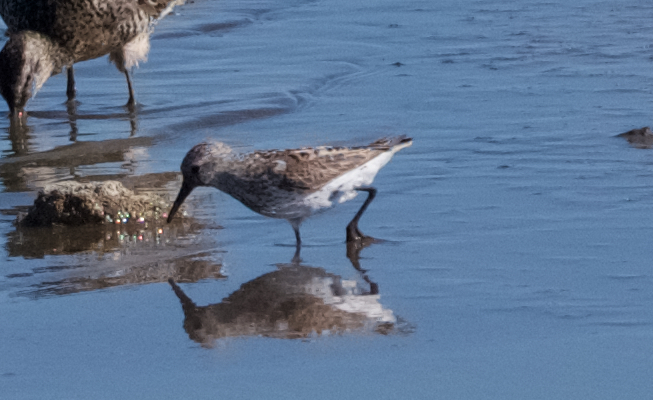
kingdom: Animalia
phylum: Chordata
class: Aves
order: Charadriiformes
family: Scolopacidae
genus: Calidris
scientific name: Calidris mauri
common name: Western sandpiper
